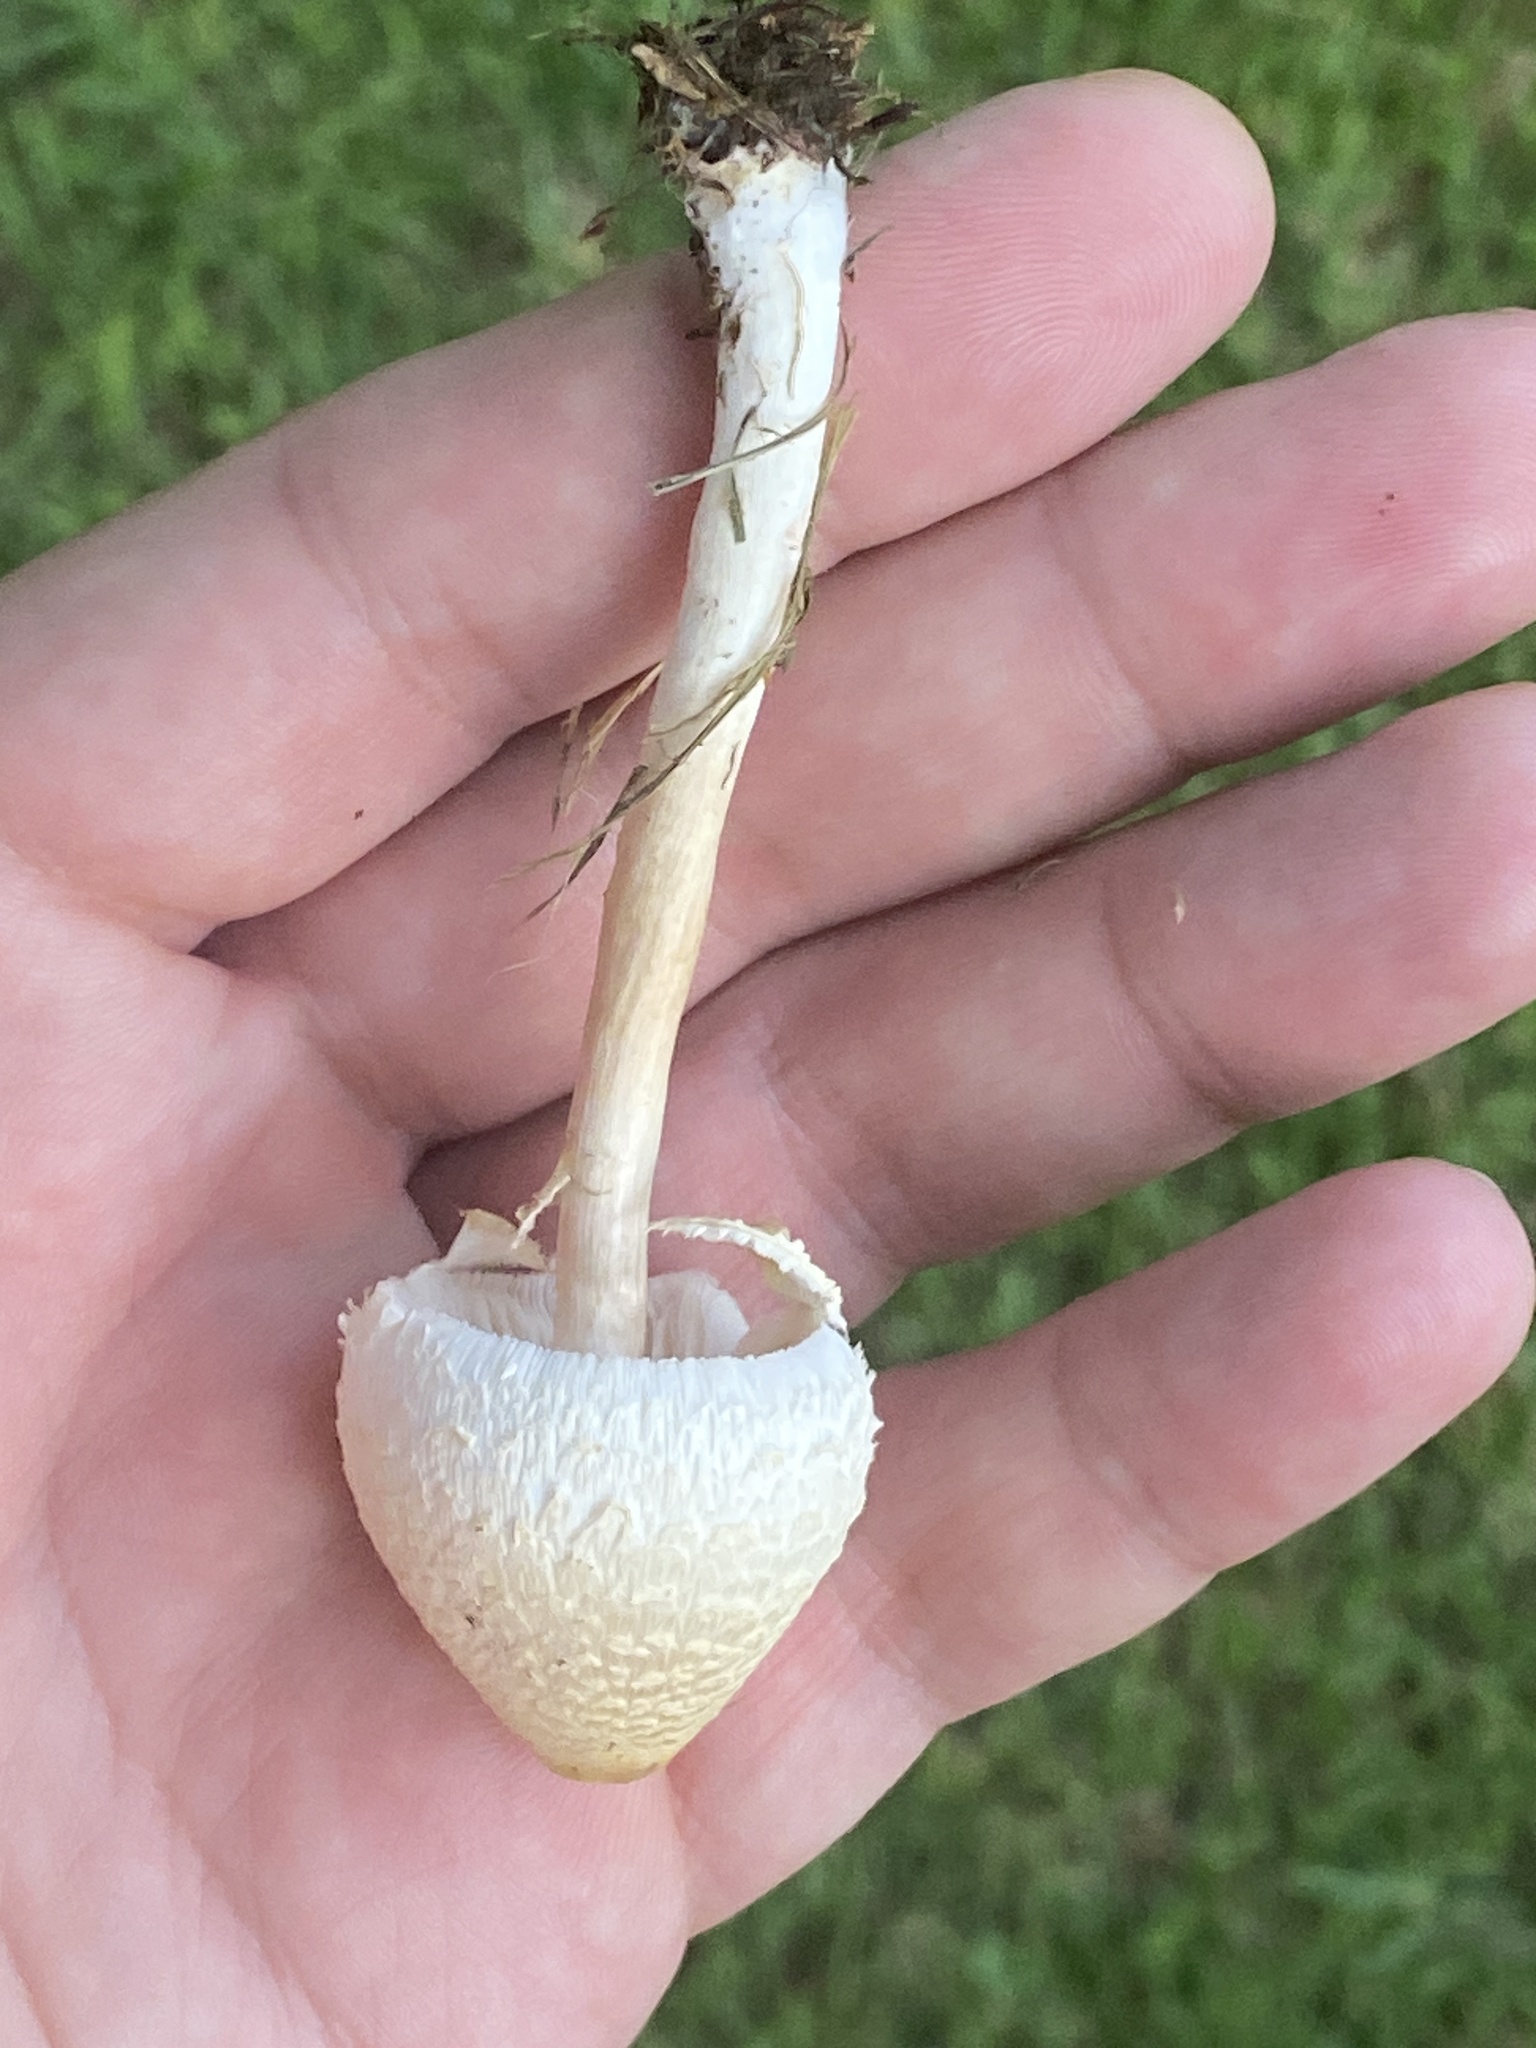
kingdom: Fungi
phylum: Basidiomycota
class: Agaricomycetes
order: Agaricales
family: Agaricaceae
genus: Chlorophyllum
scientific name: Chlorophyllum hortense
